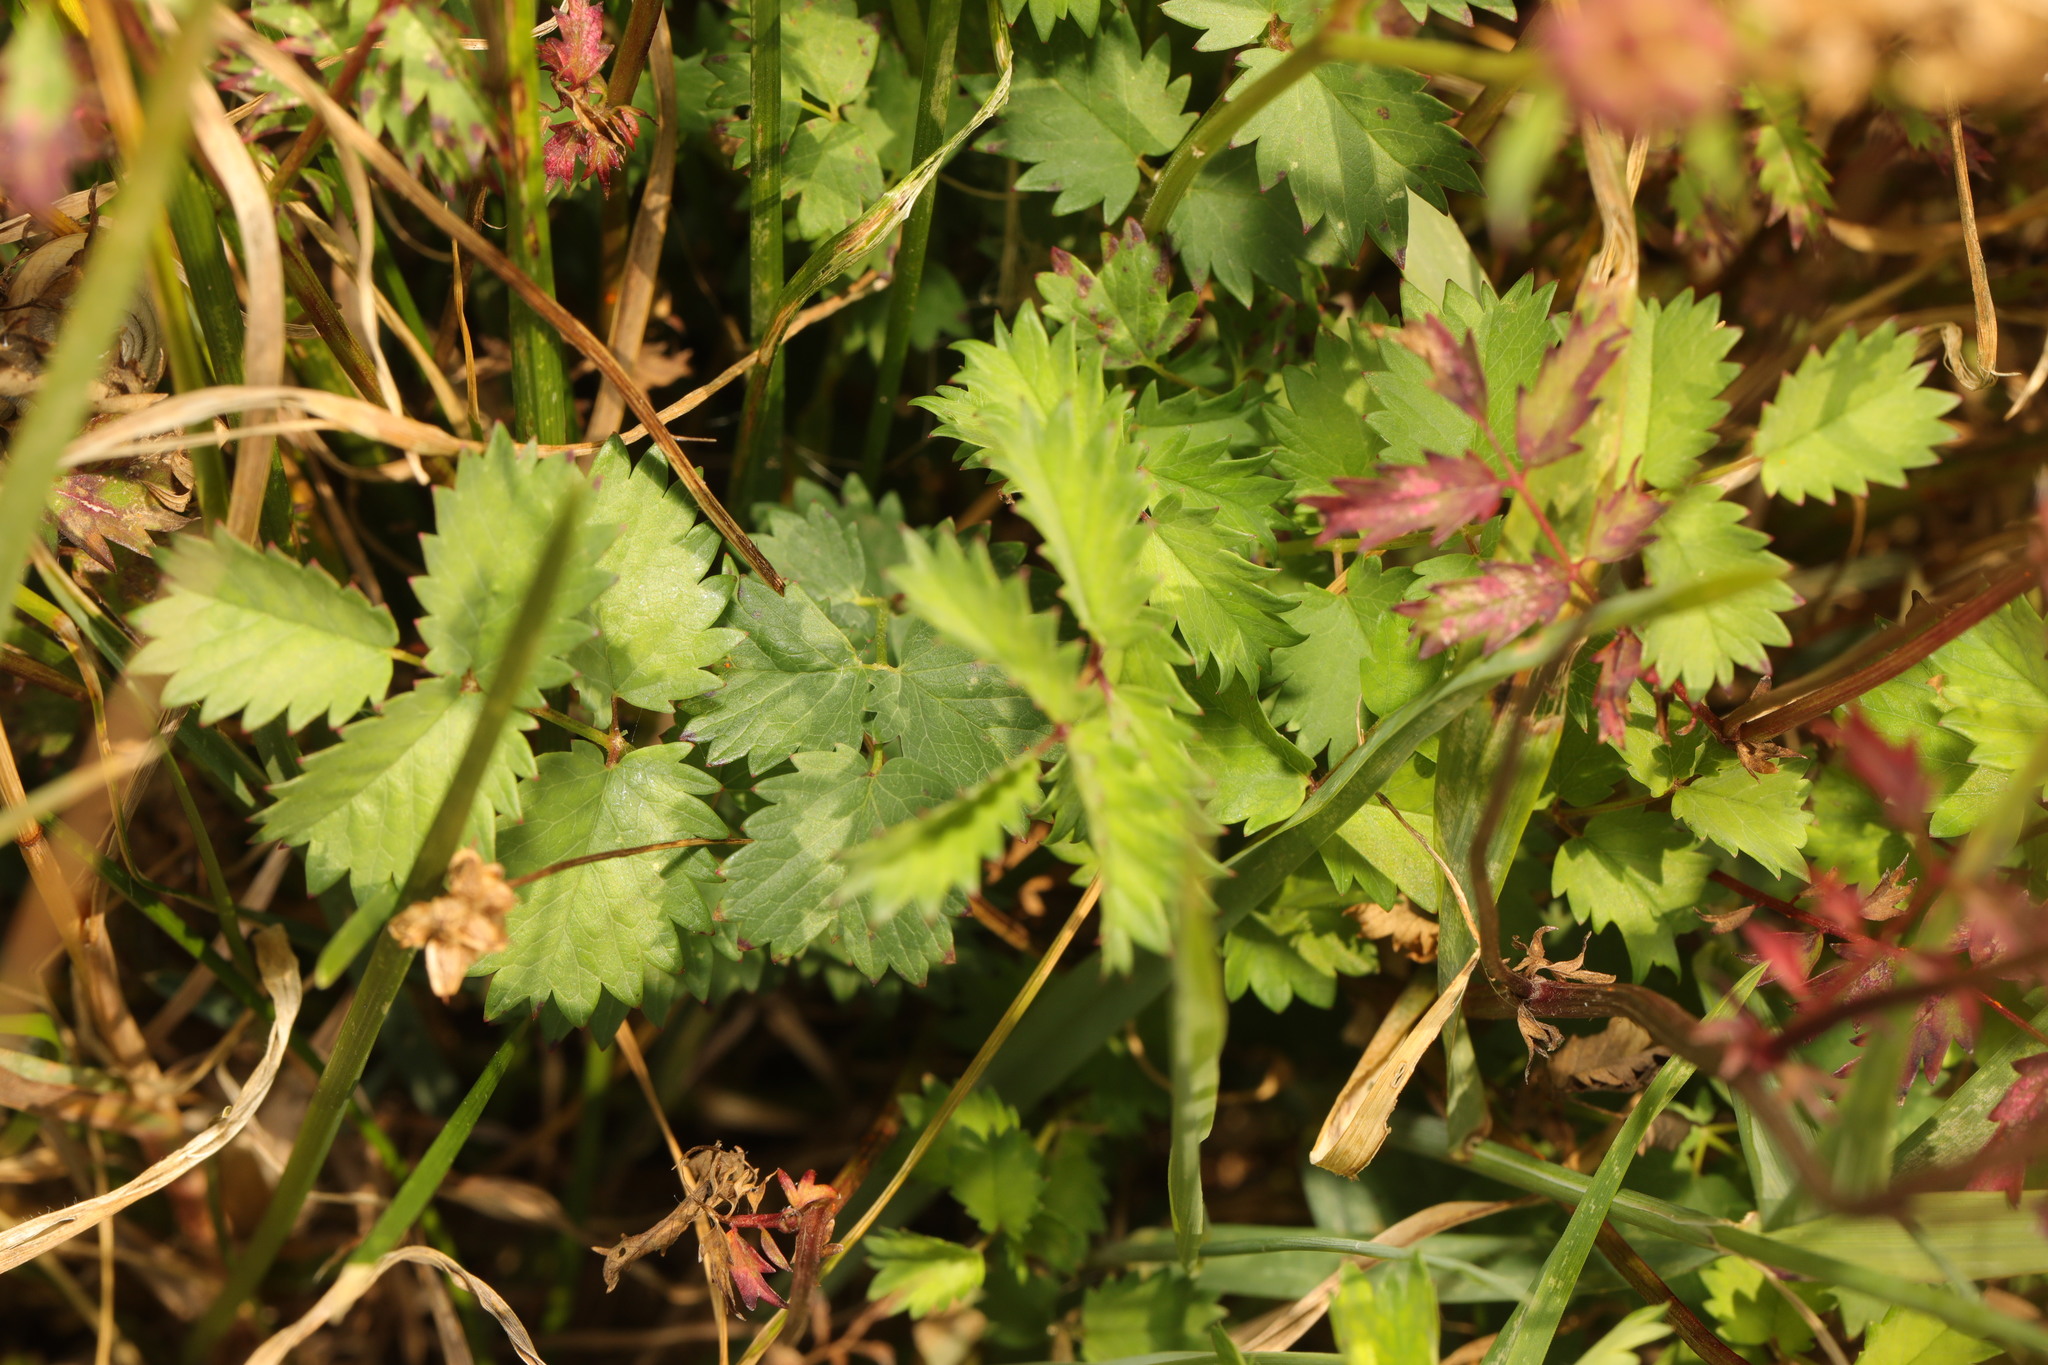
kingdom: Plantae
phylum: Tracheophyta
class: Magnoliopsida
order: Rosales
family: Rosaceae
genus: Poterium
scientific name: Poterium sanguisorba
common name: Salad burnet
